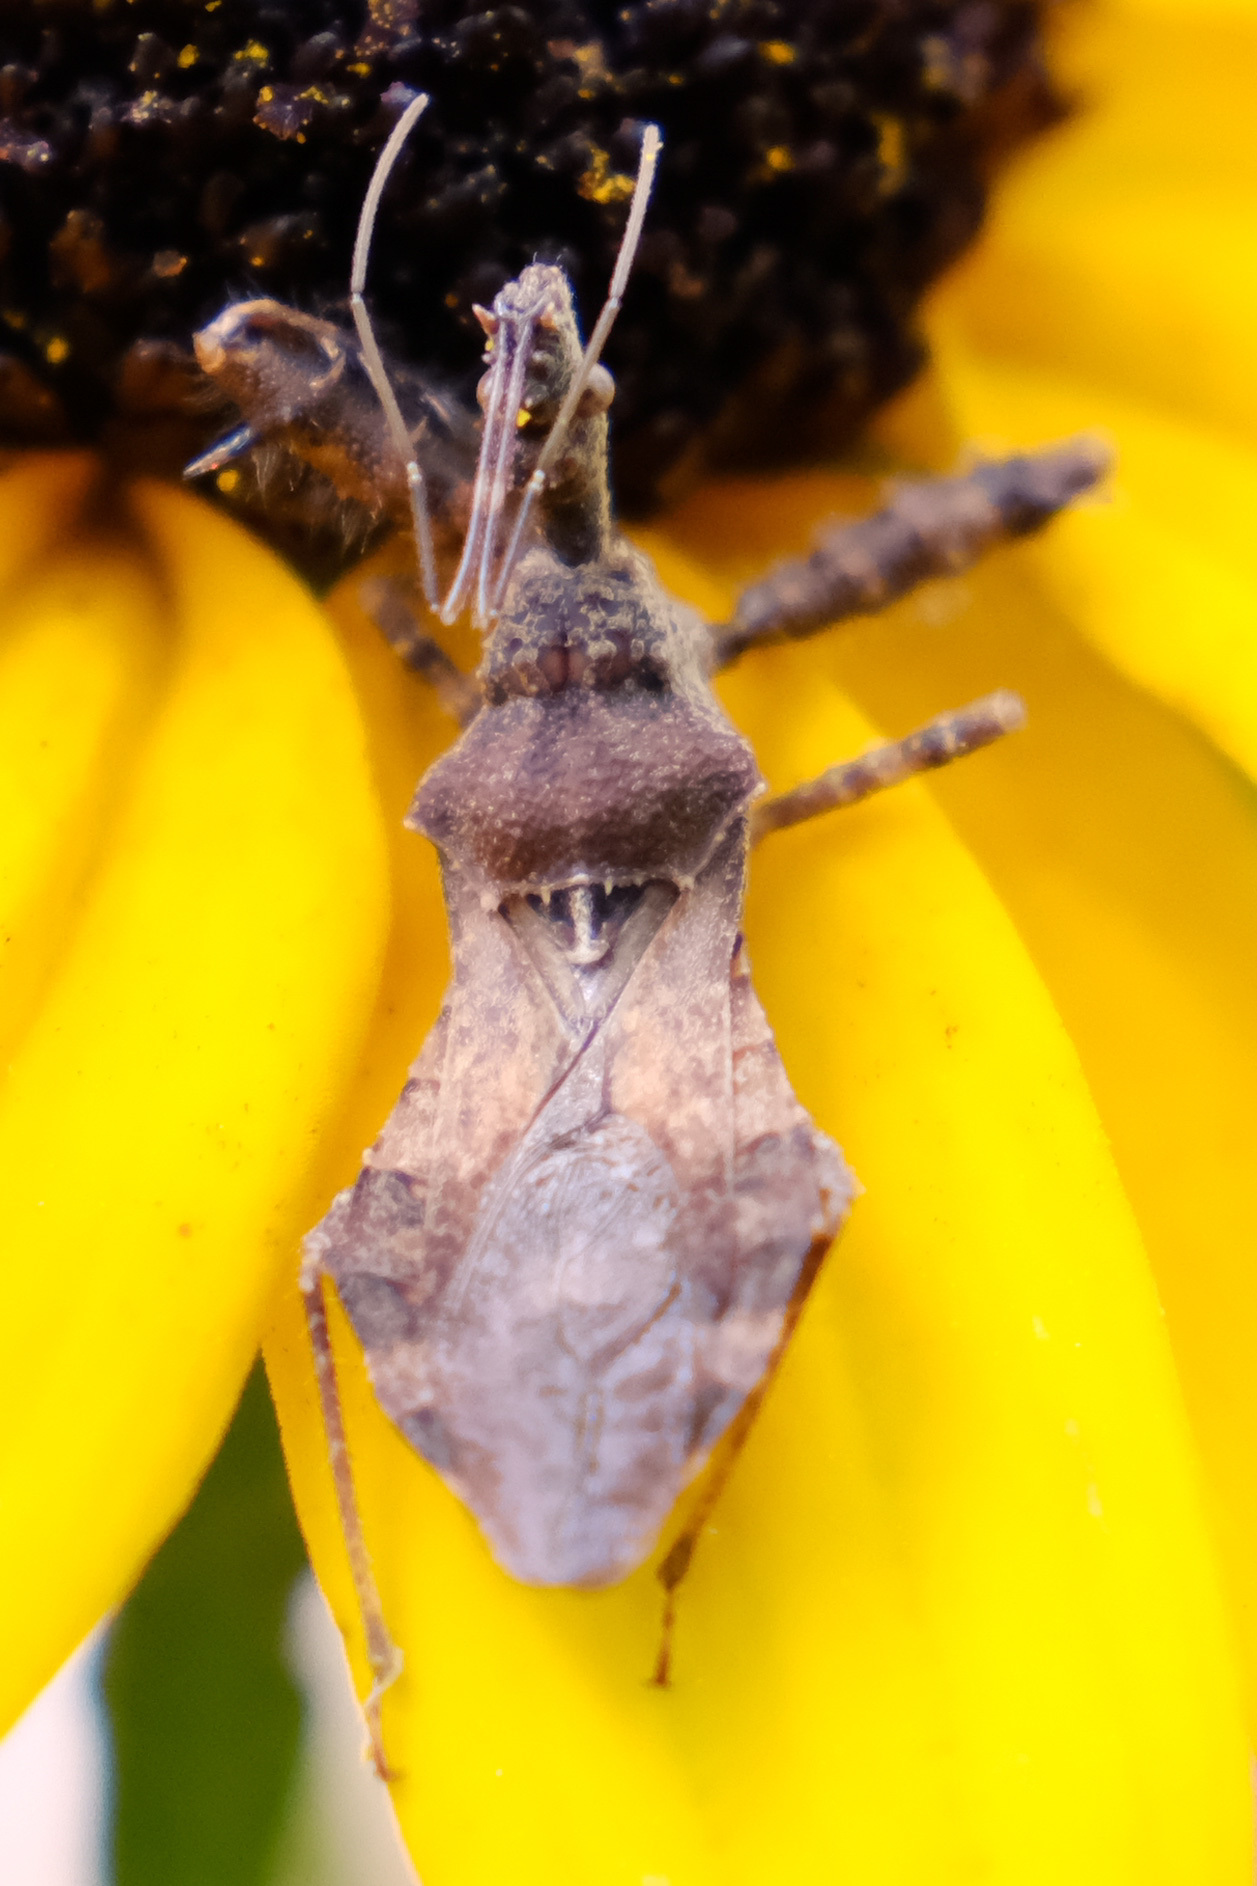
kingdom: Animalia
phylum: Arthropoda
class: Insecta
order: Hemiptera
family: Reduviidae
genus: Sinea
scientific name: Sinea spinipes
